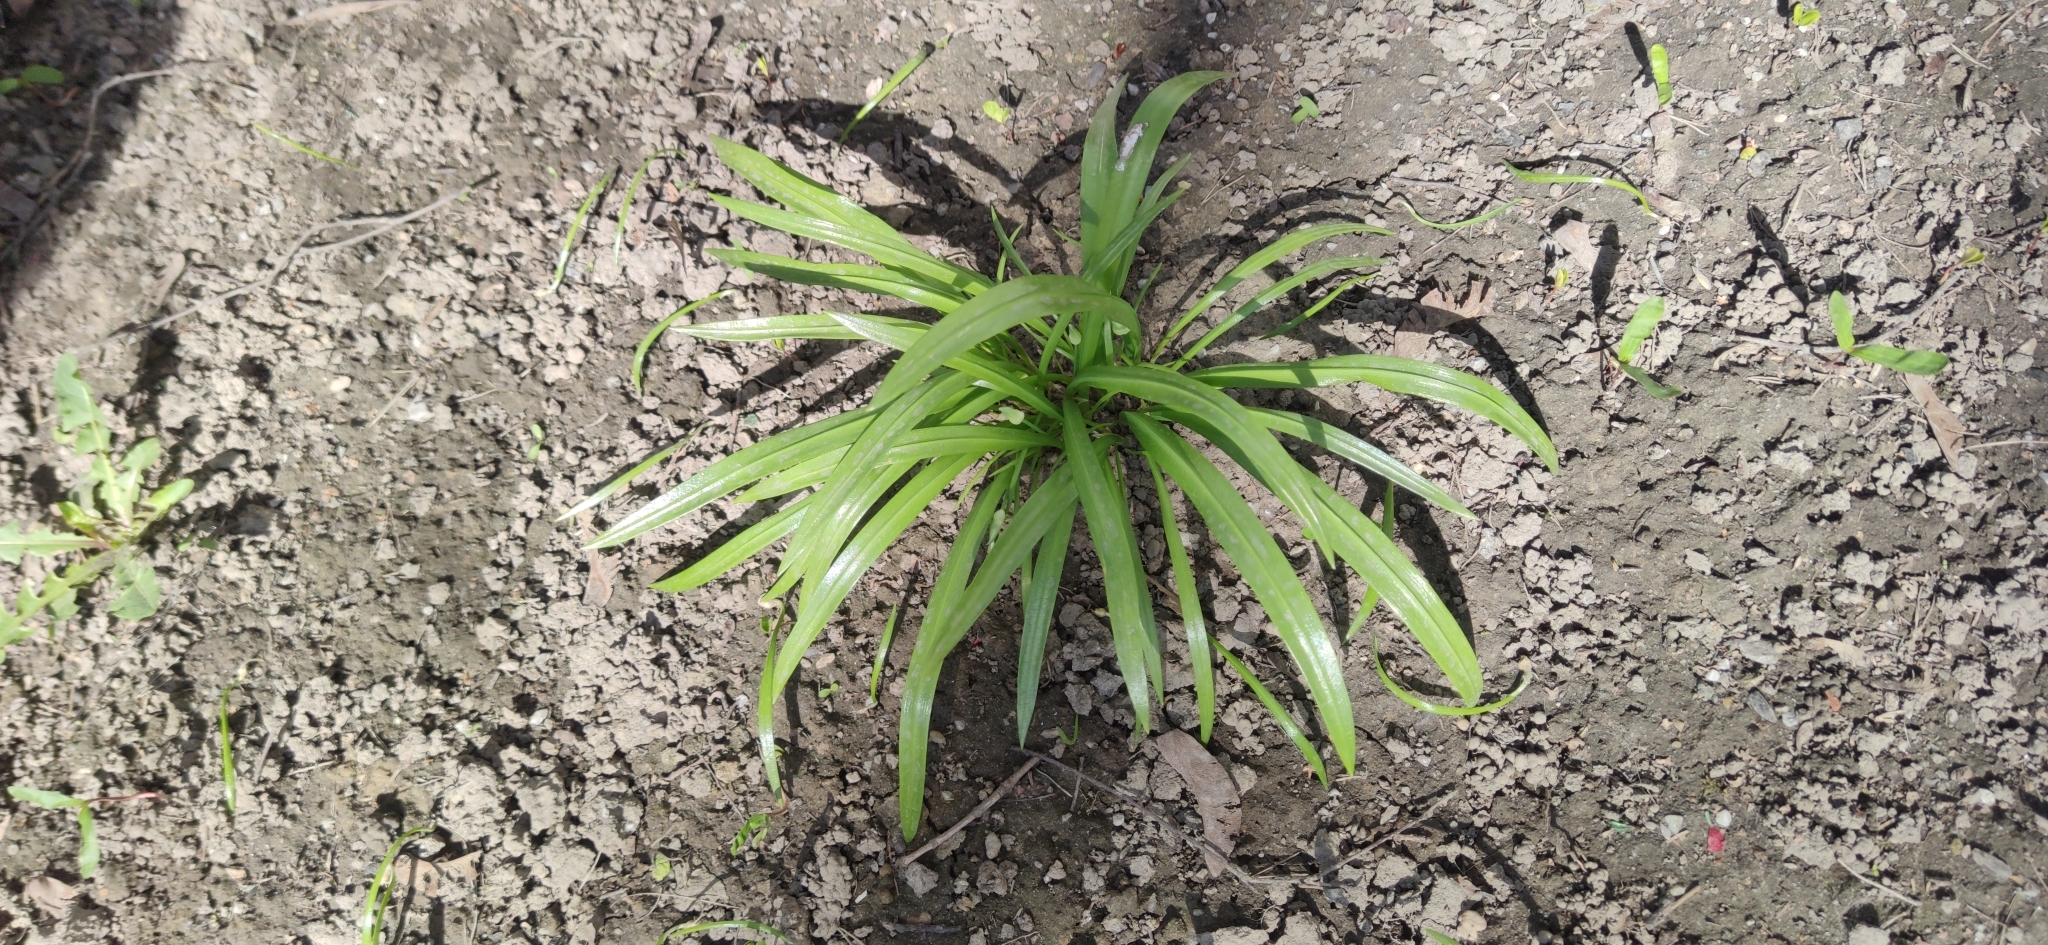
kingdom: Plantae
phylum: Tracheophyta
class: Liliopsida
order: Asparagales
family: Amaryllidaceae
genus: Allium
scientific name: Allium paradoxum
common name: Few-flowered garlic
